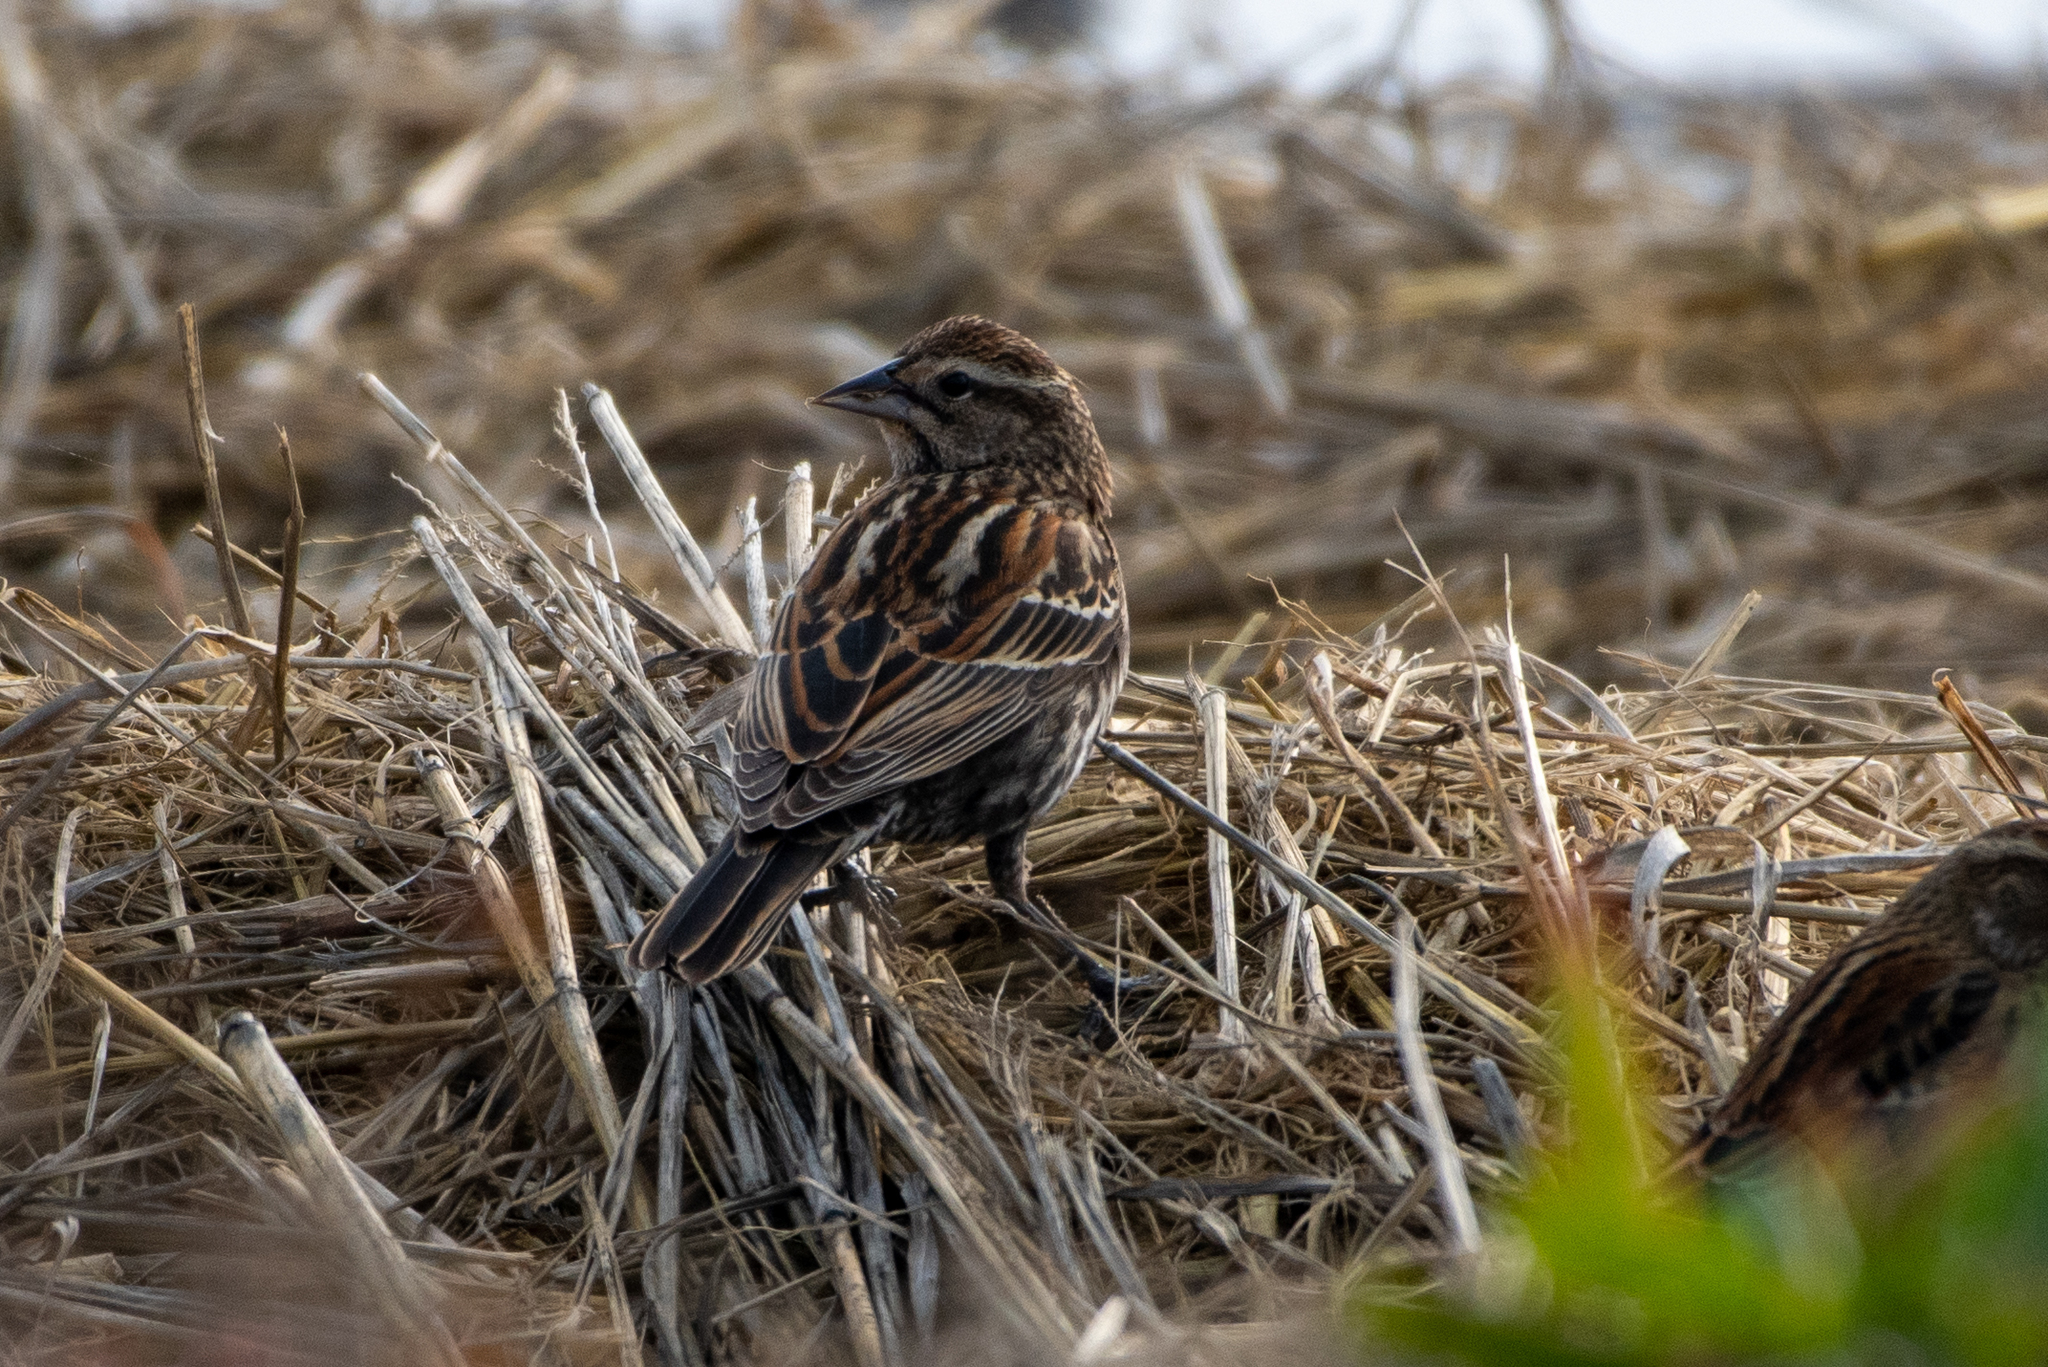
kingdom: Animalia
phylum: Chordata
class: Aves
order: Passeriformes
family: Icteridae
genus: Agelaius
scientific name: Agelaius phoeniceus
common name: Red-winged blackbird
